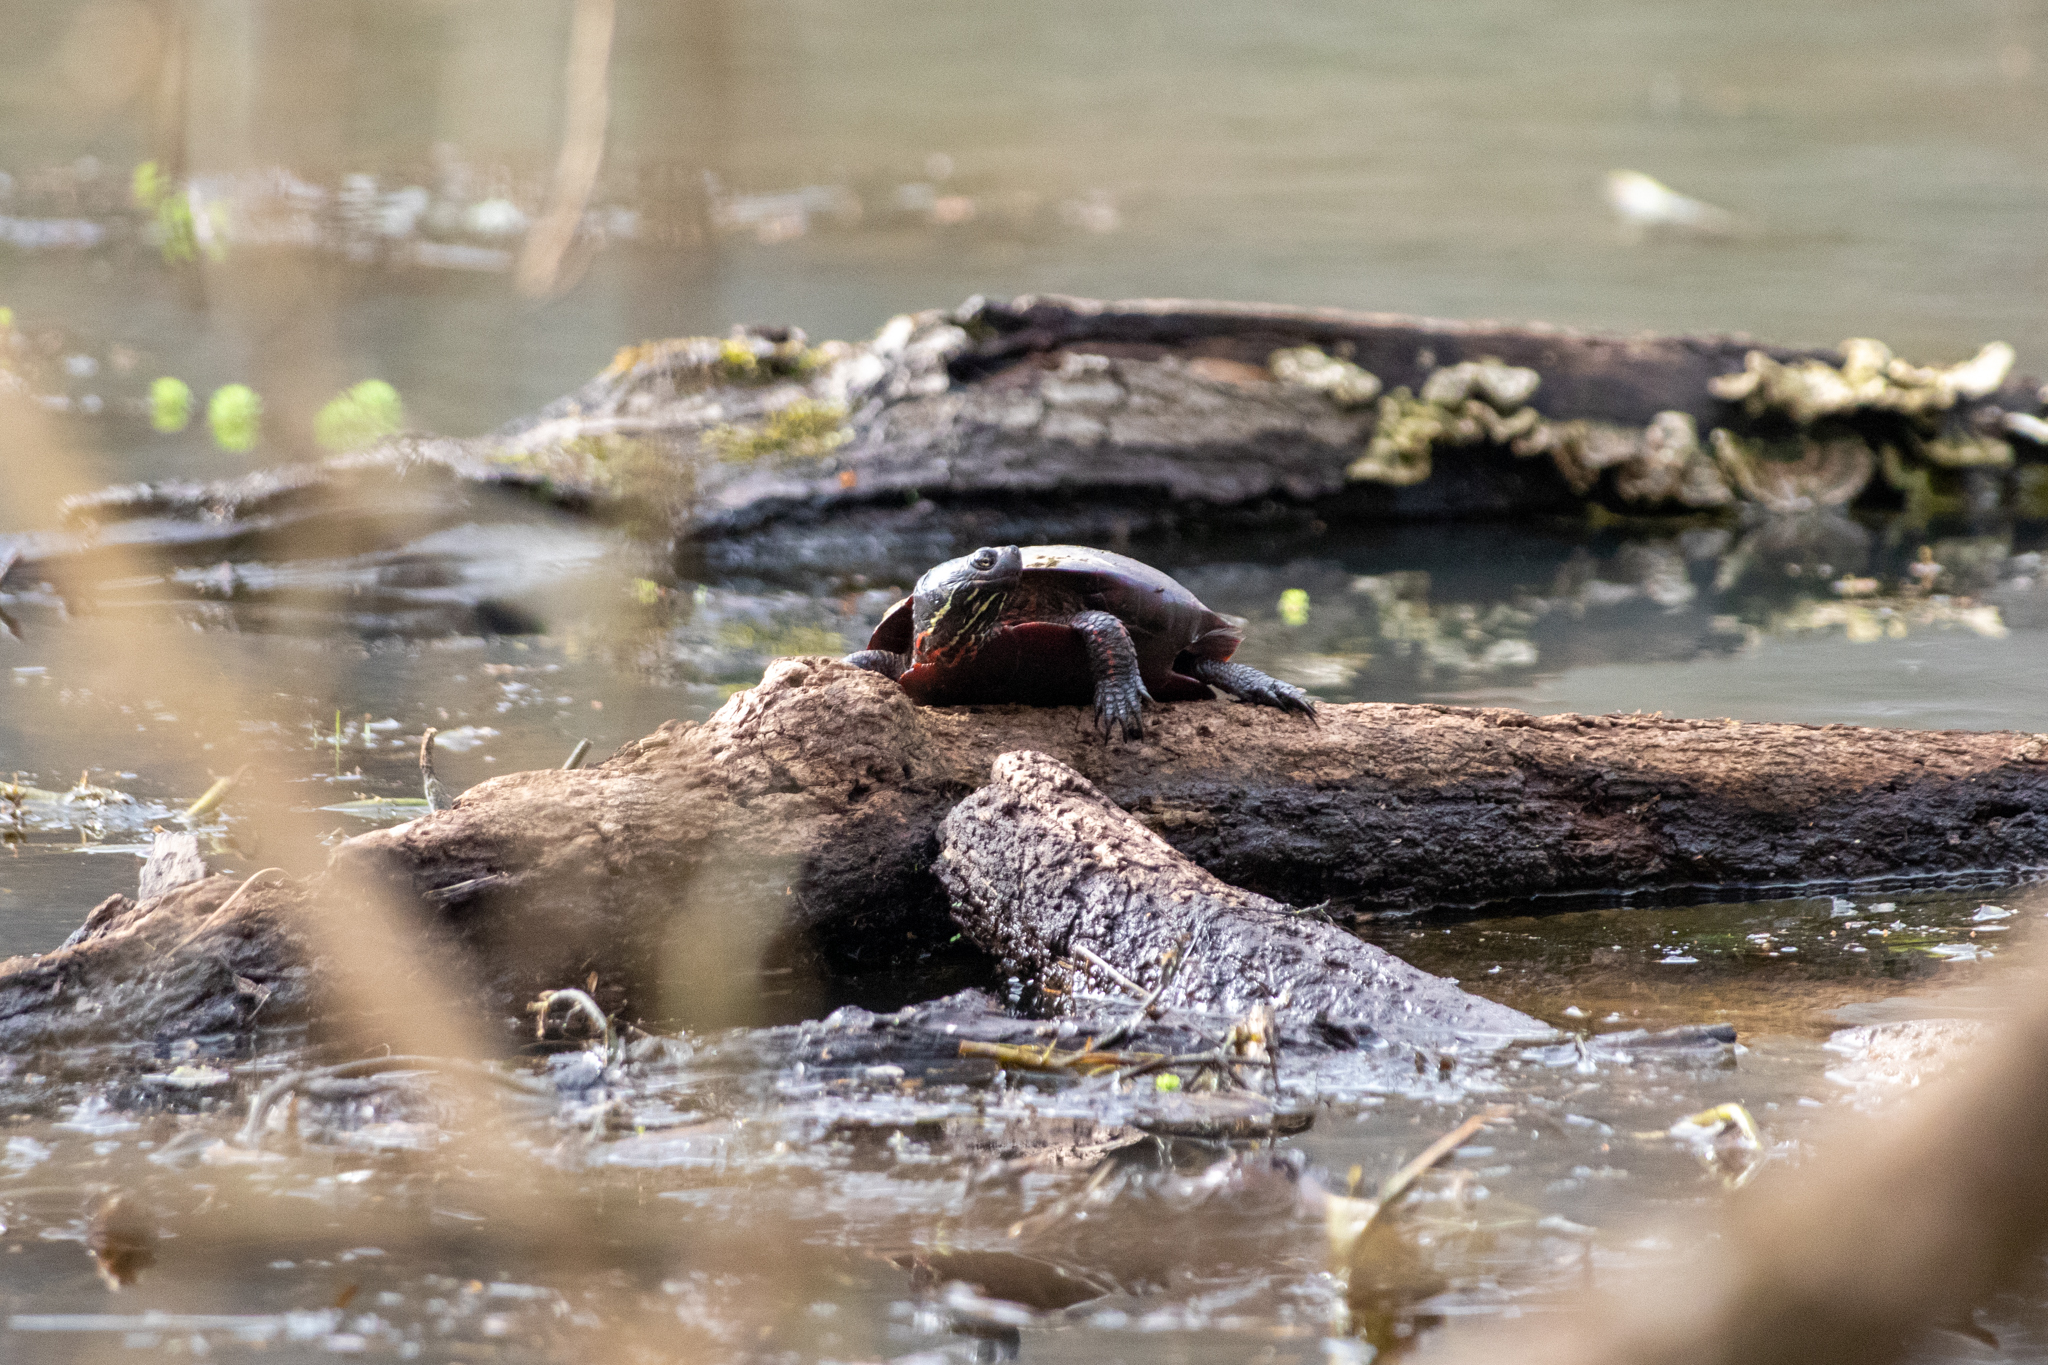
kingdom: Animalia
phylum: Chordata
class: Testudines
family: Emydidae
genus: Chrysemys
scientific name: Chrysemys picta
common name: Painted turtle
